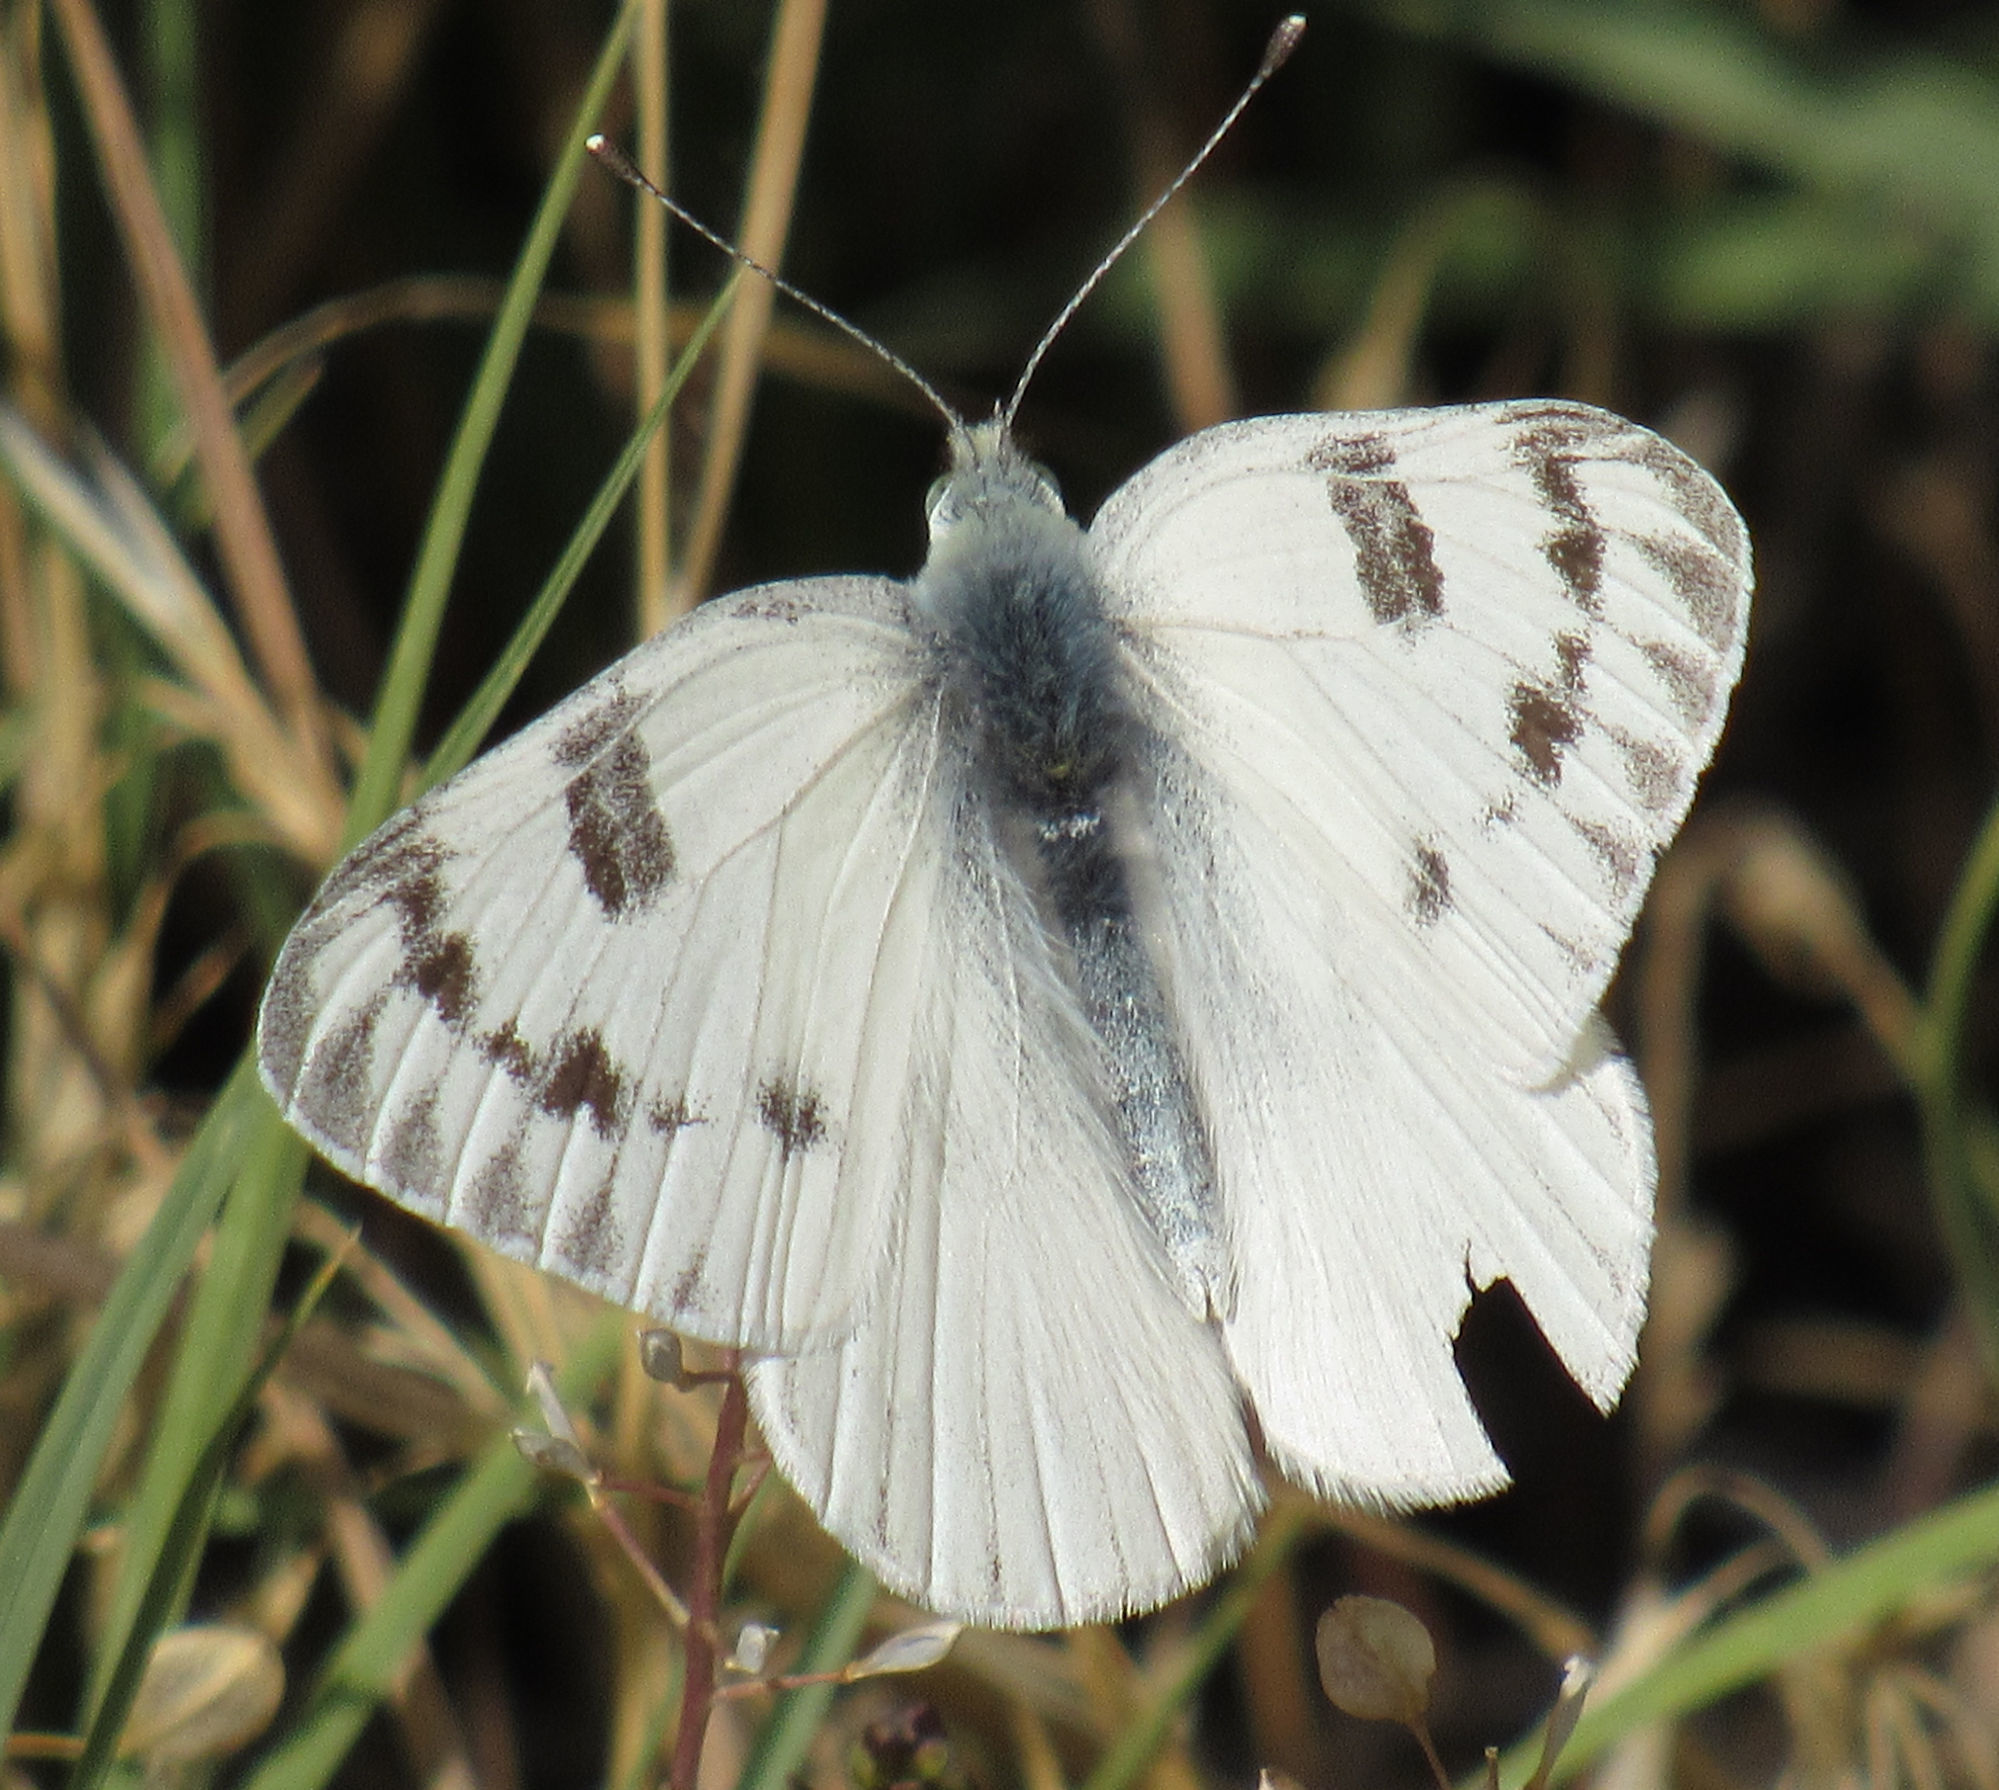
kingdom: Animalia
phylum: Arthropoda
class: Insecta
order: Lepidoptera
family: Pieridae
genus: Pontia
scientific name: Pontia occidentalis
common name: Western white
